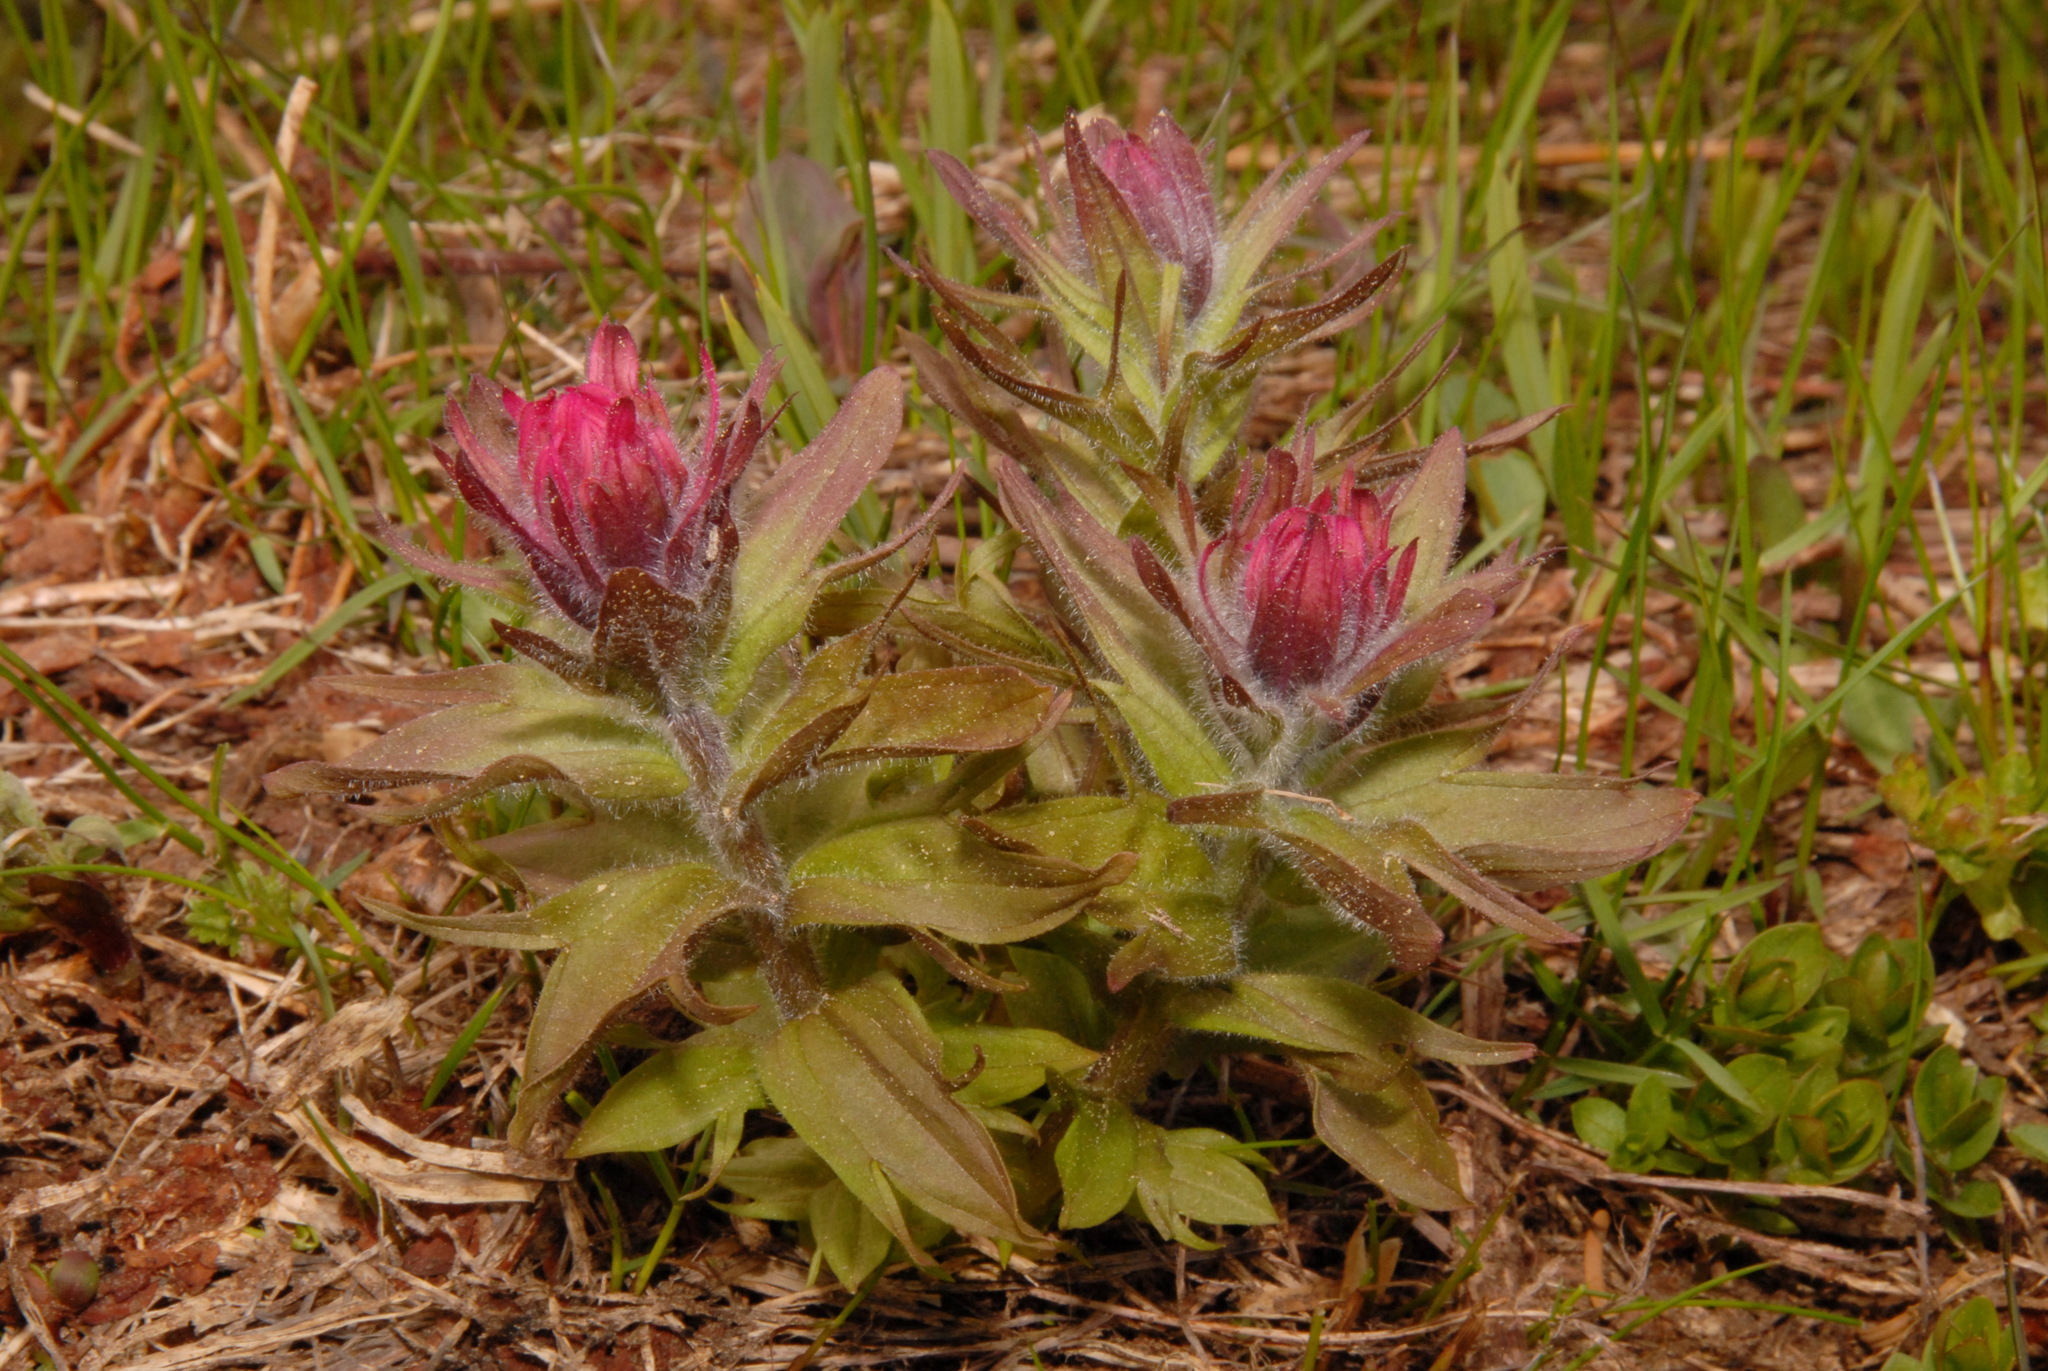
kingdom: Plantae
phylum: Tracheophyta
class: Magnoliopsida
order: Lamiales
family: Orobanchaceae
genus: Castilleja
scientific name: Castilleja parviflora
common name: Mountain paintbrush
